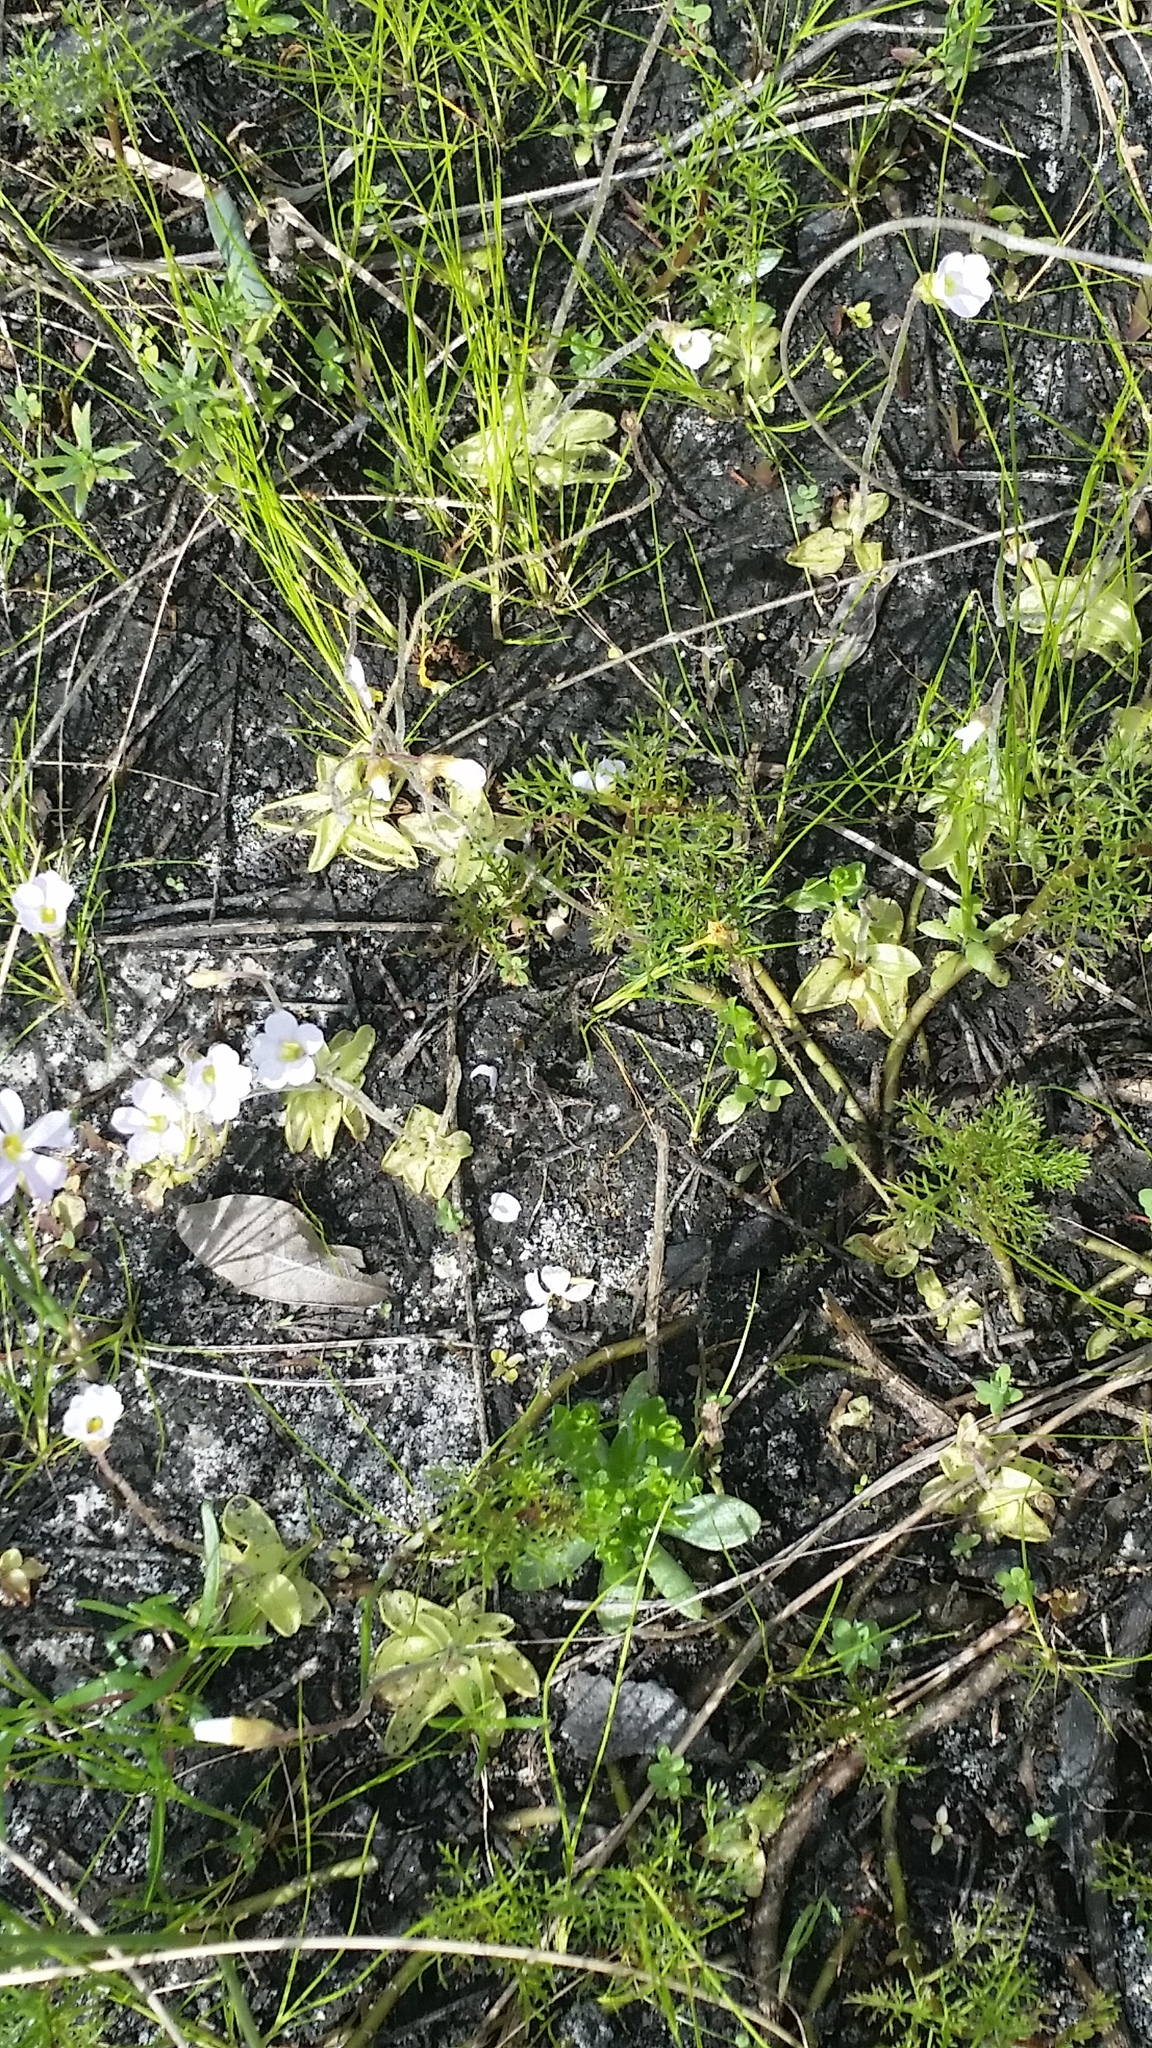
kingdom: Plantae
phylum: Tracheophyta
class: Magnoliopsida
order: Lamiales
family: Lentibulariaceae
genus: Pinguicula
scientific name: Pinguicula pumila
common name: Small butterwort
